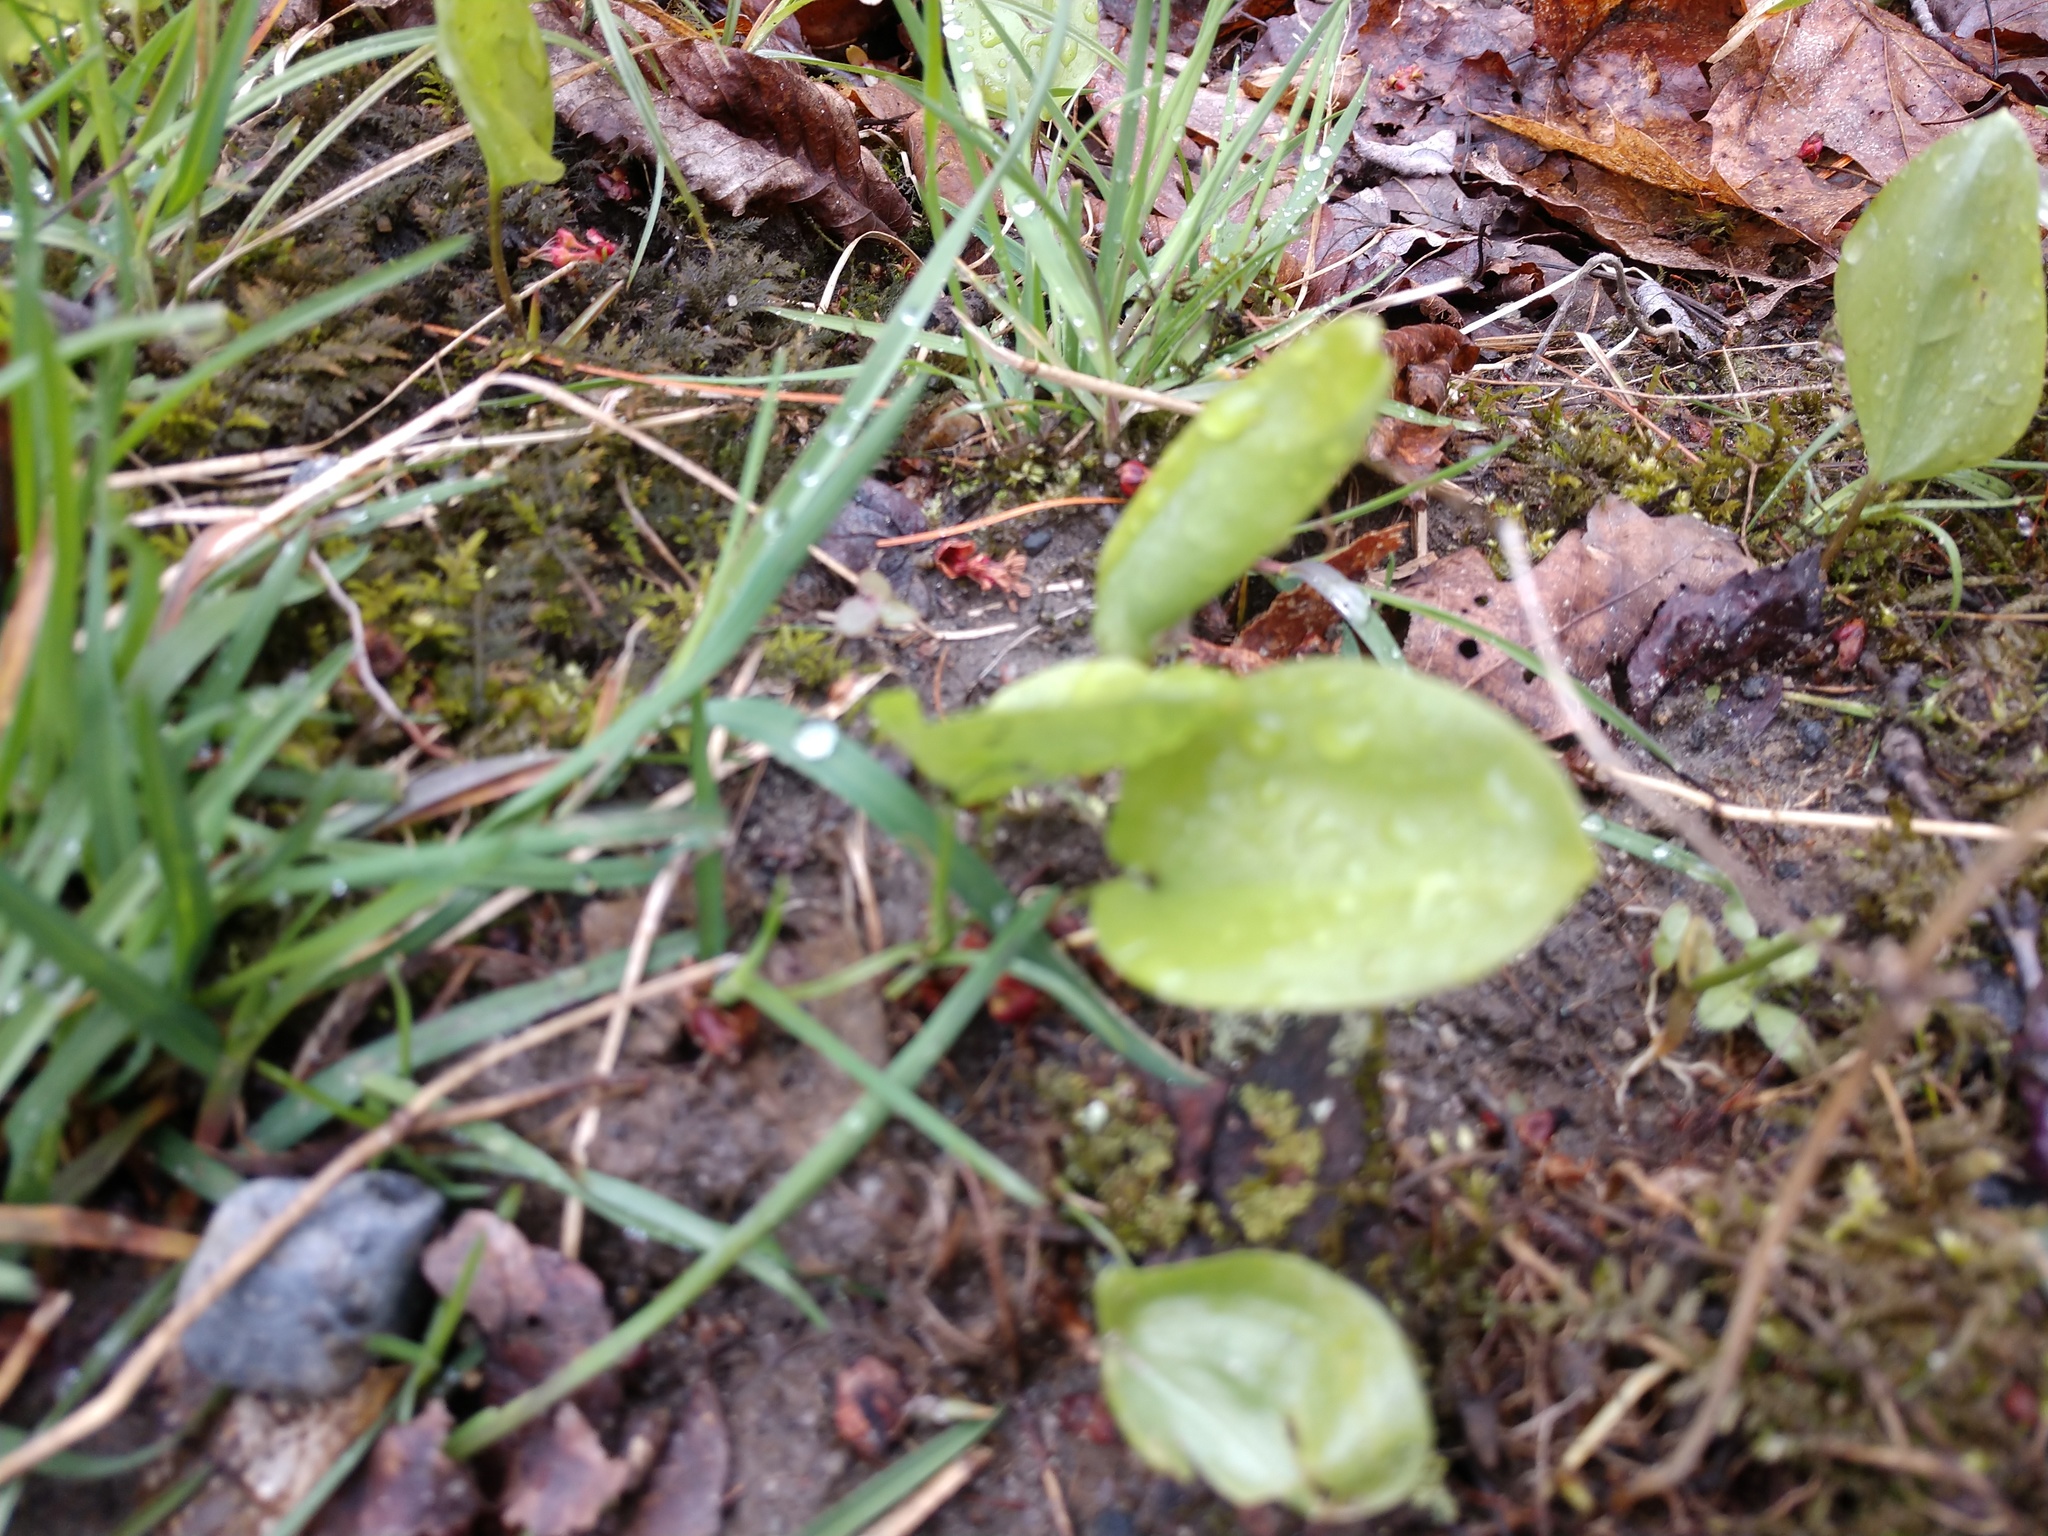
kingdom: Plantae
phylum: Tracheophyta
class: Liliopsida
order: Asparagales
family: Asparagaceae
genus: Maianthemum
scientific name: Maianthemum canadense
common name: False lily-of-the-valley
